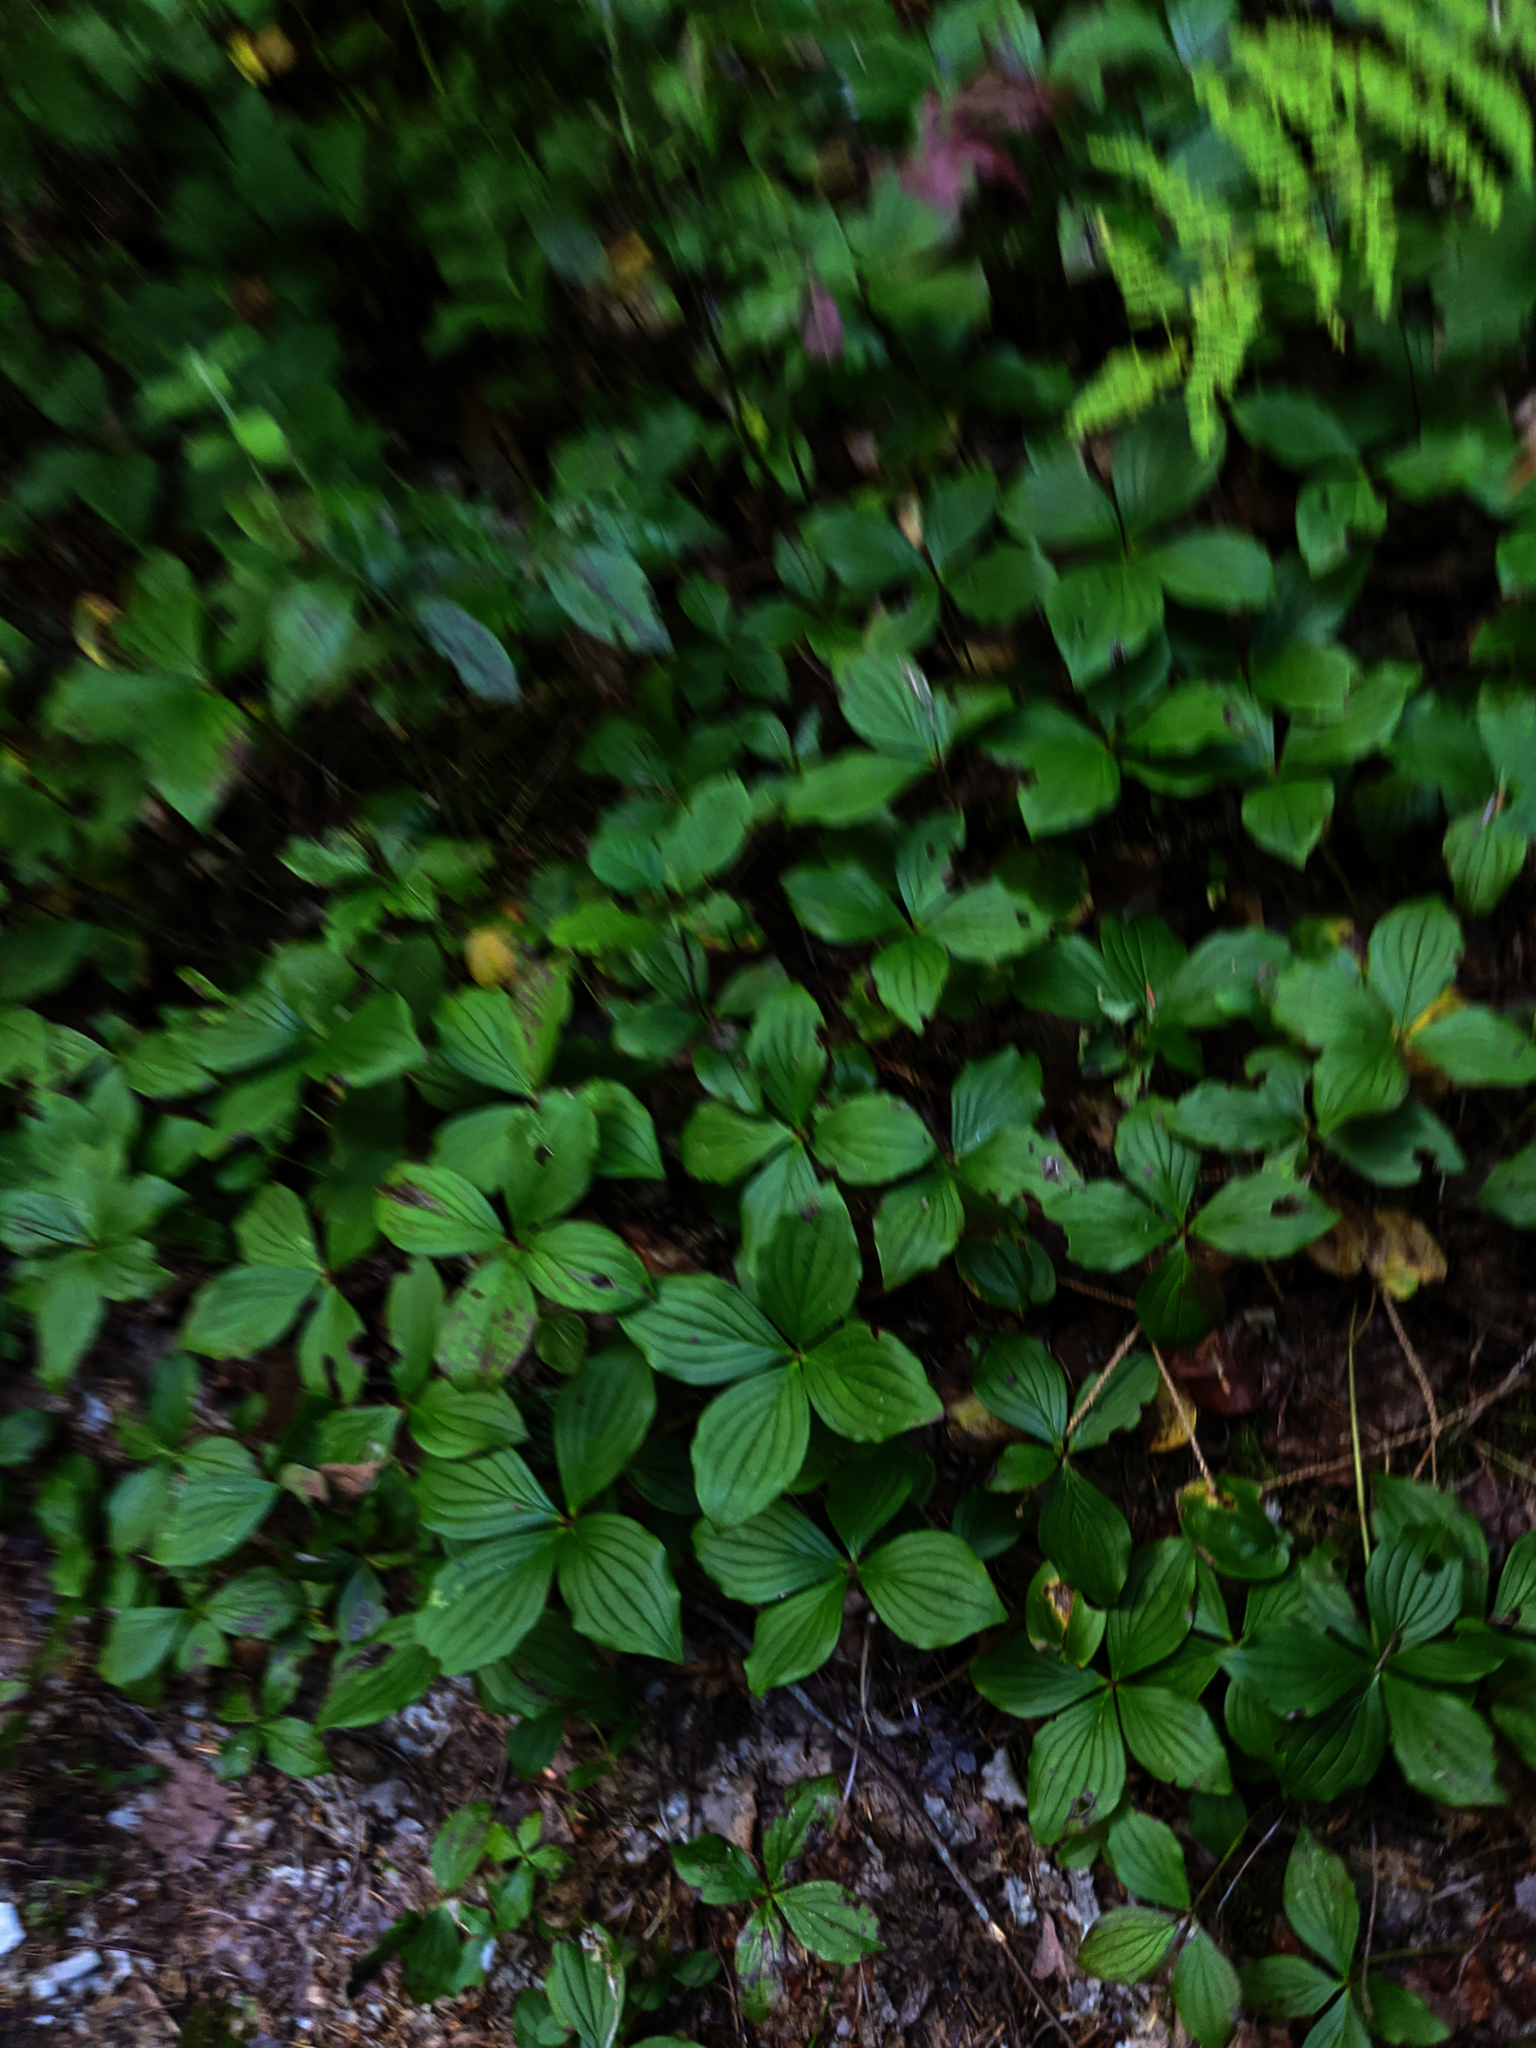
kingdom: Plantae
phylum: Tracheophyta
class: Magnoliopsida
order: Cornales
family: Cornaceae
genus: Cornus
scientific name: Cornus canadensis
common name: Creeping dogwood
